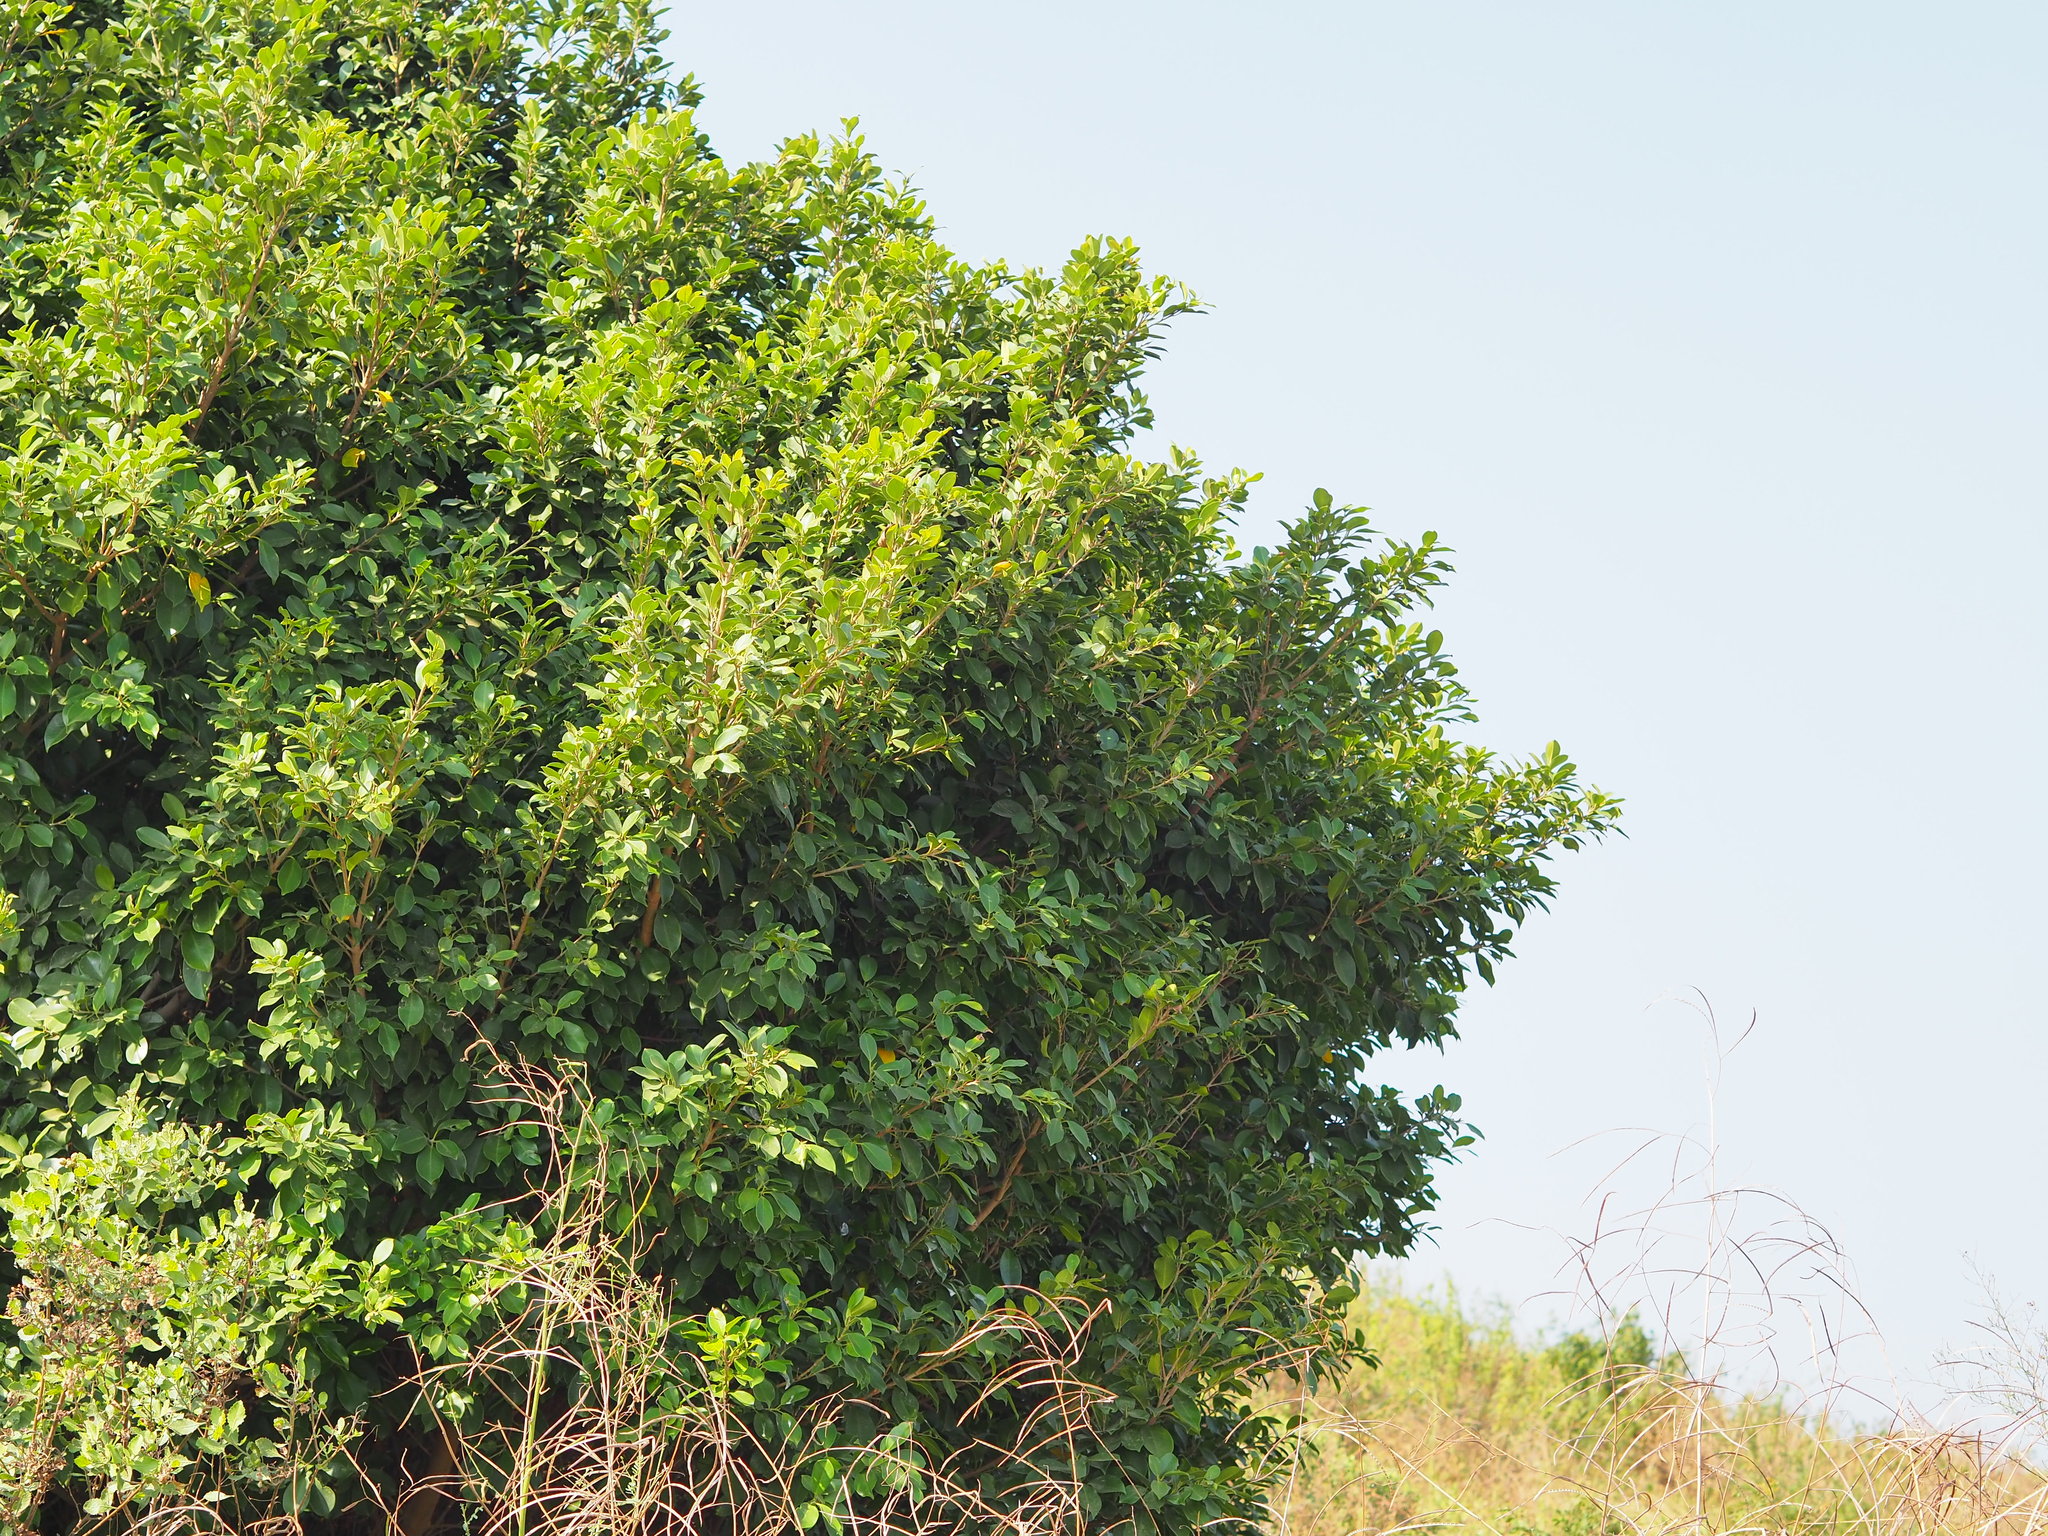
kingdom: Plantae
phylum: Tracheophyta
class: Magnoliopsida
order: Rosales
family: Moraceae
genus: Ficus
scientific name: Ficus microcarpa
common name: Chinese banyan
